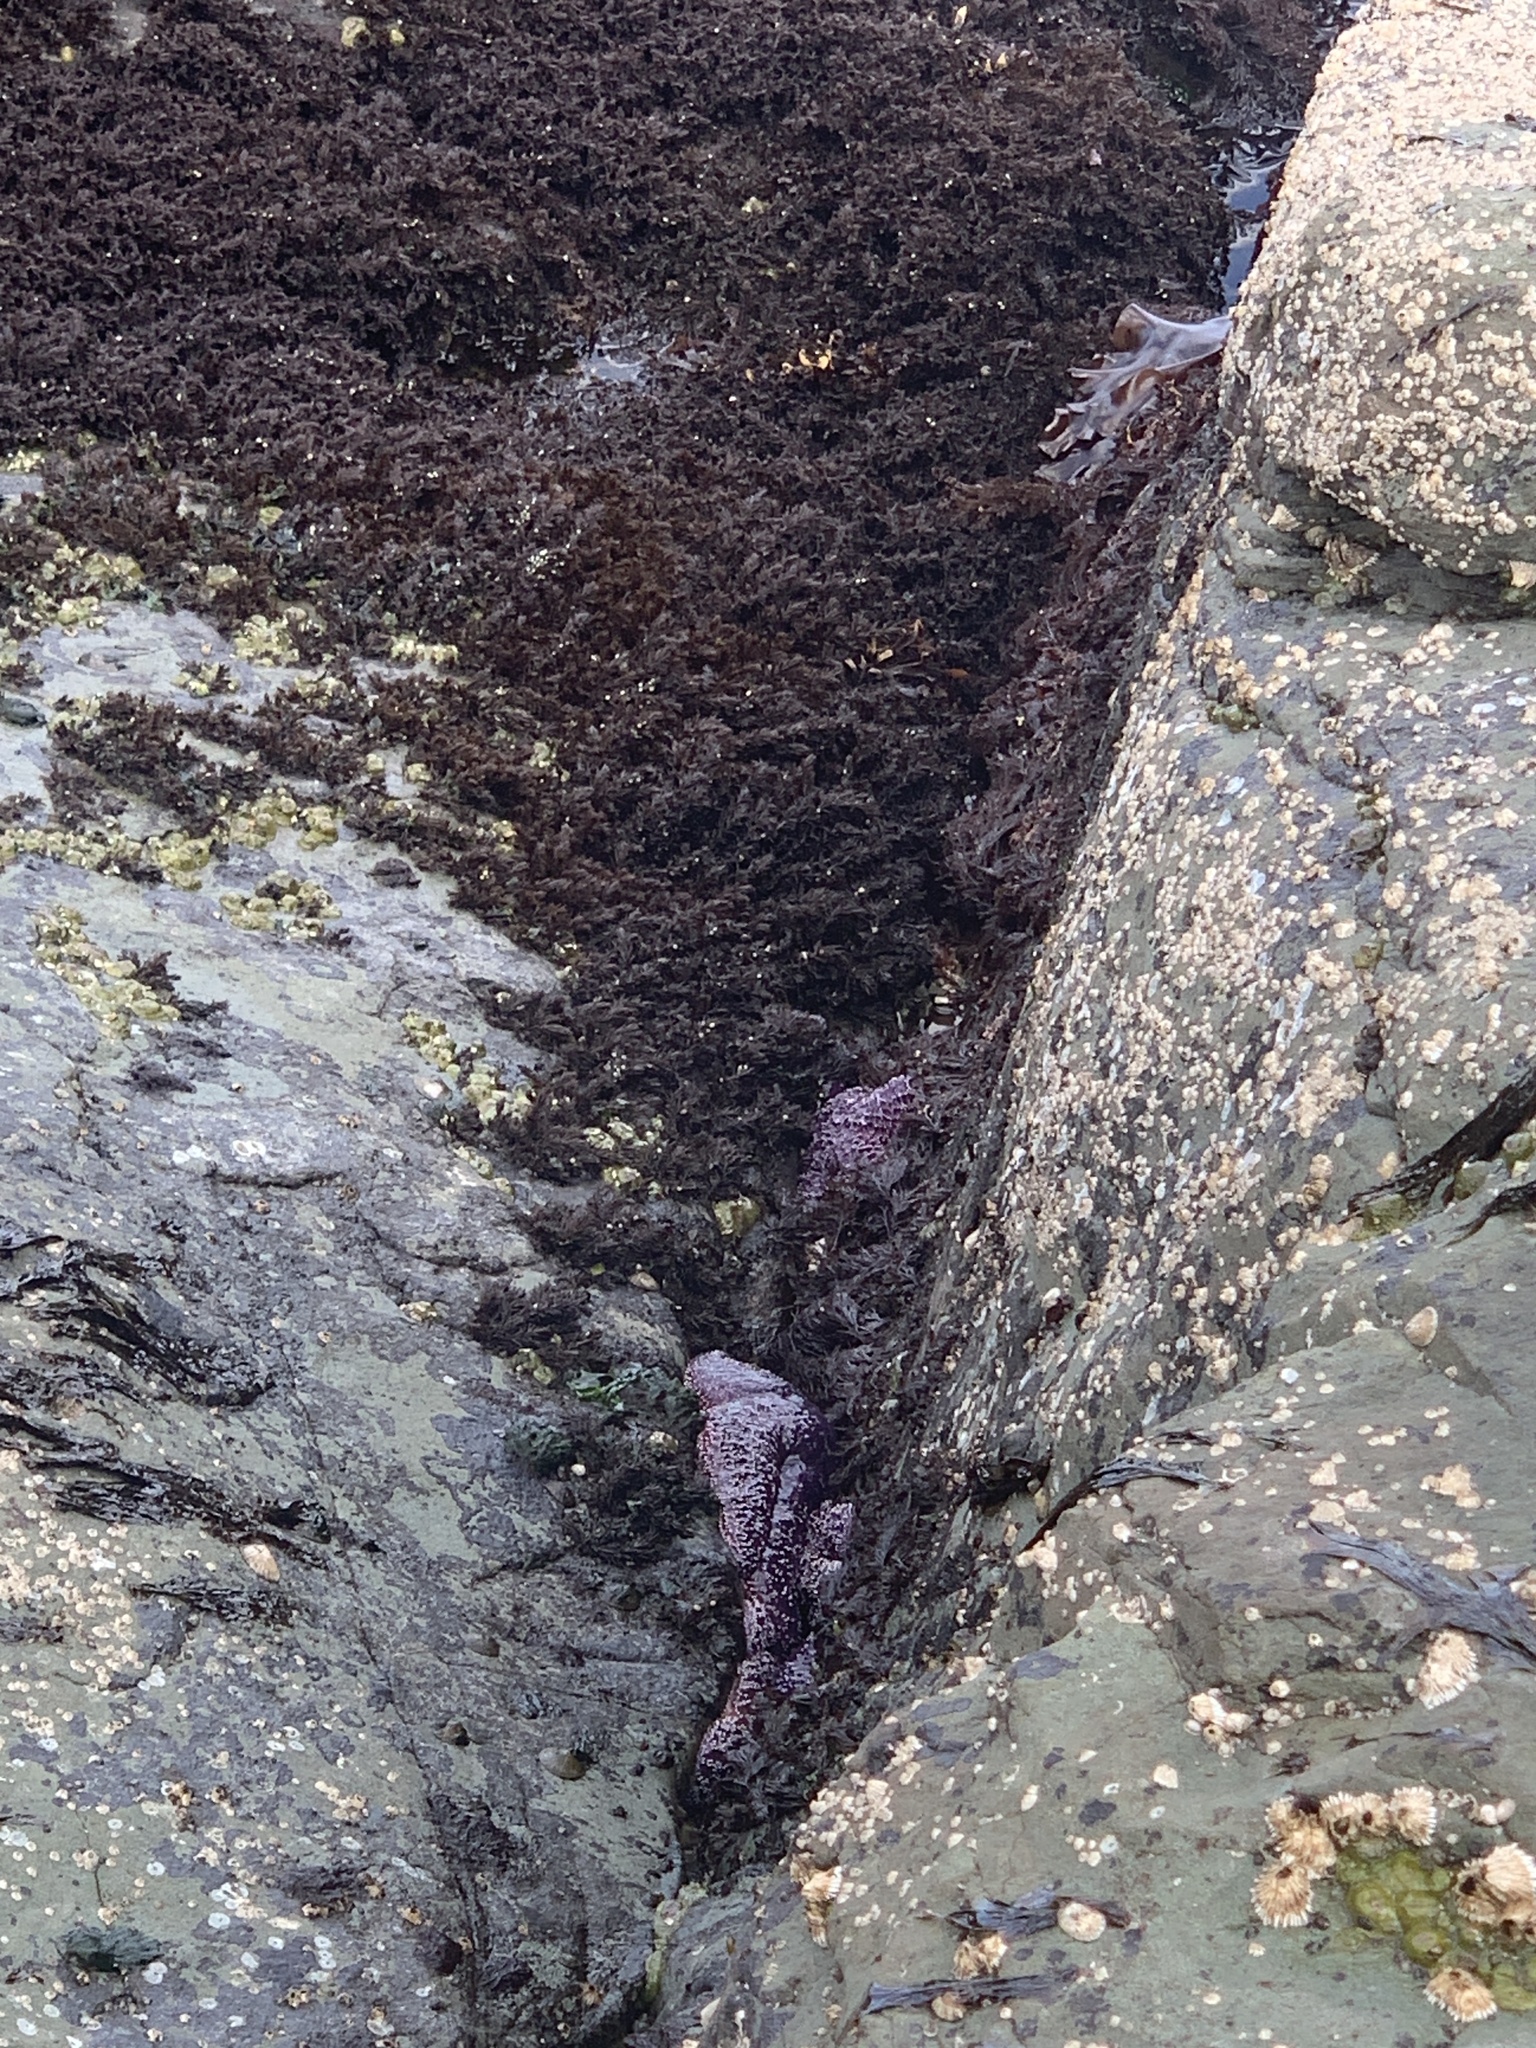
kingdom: Animalia
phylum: Echinodermata
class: Asteroidea
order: Forcipulatida
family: Asteriidae
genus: Pisaster
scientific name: Pisaster ochraceus
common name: Ochre stars
